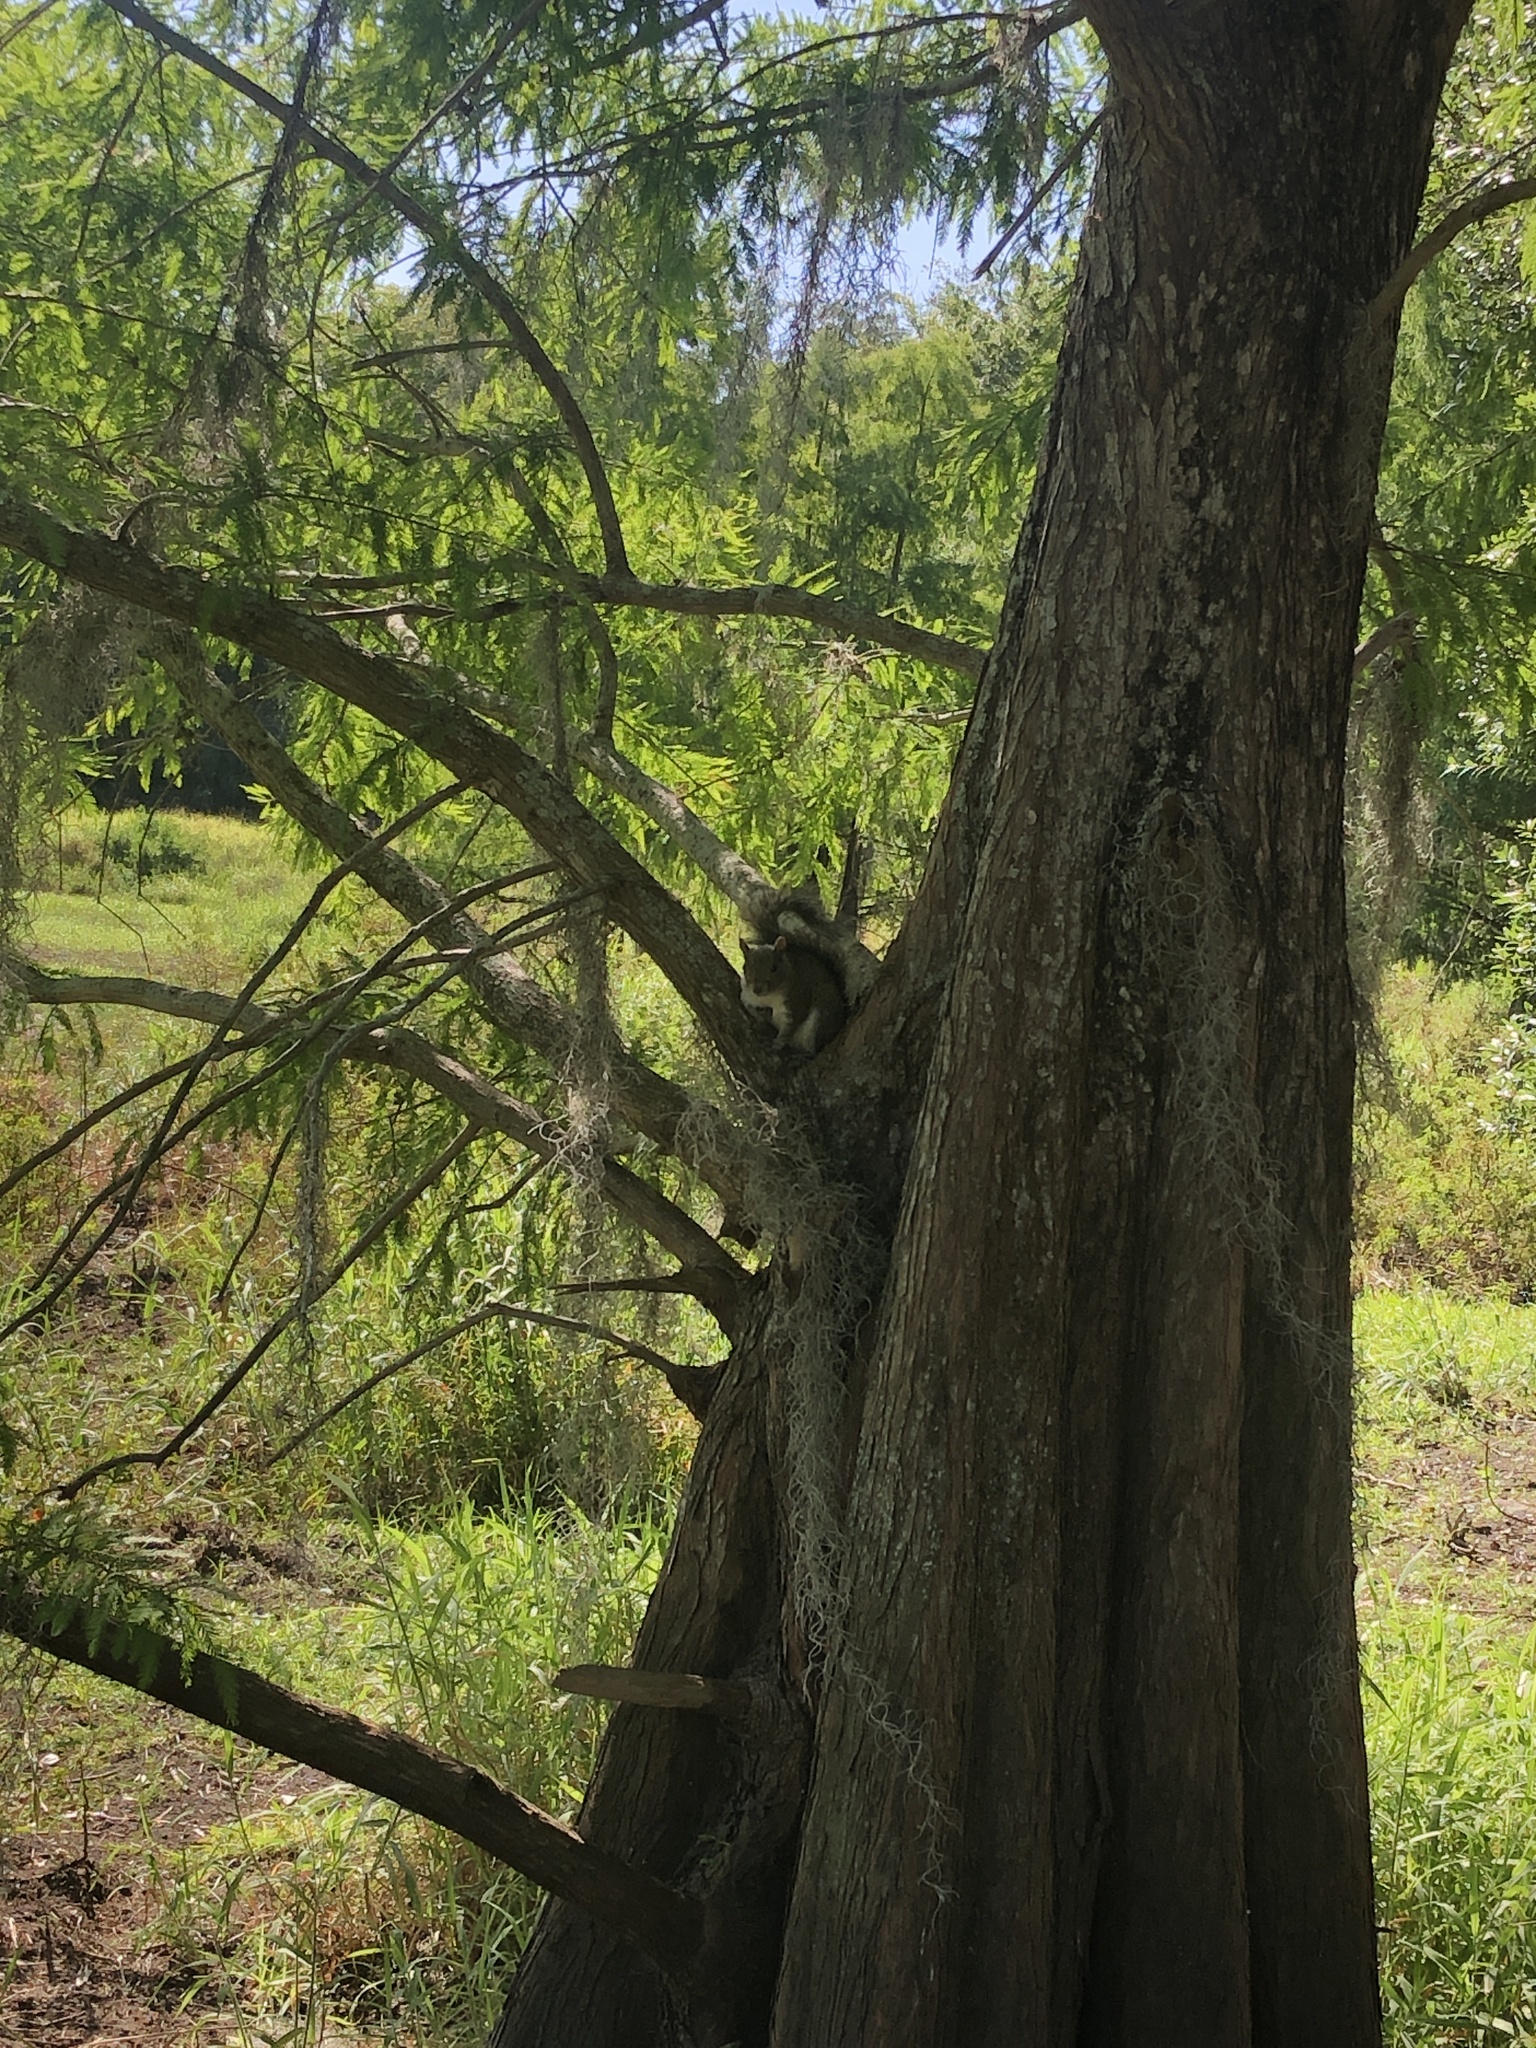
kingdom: Animalia
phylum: Chordata
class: Mammalia
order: Rodentia
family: Sciuridae
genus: Sciurus
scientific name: Sciurus carolinensis
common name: Eastern gray squirrel
